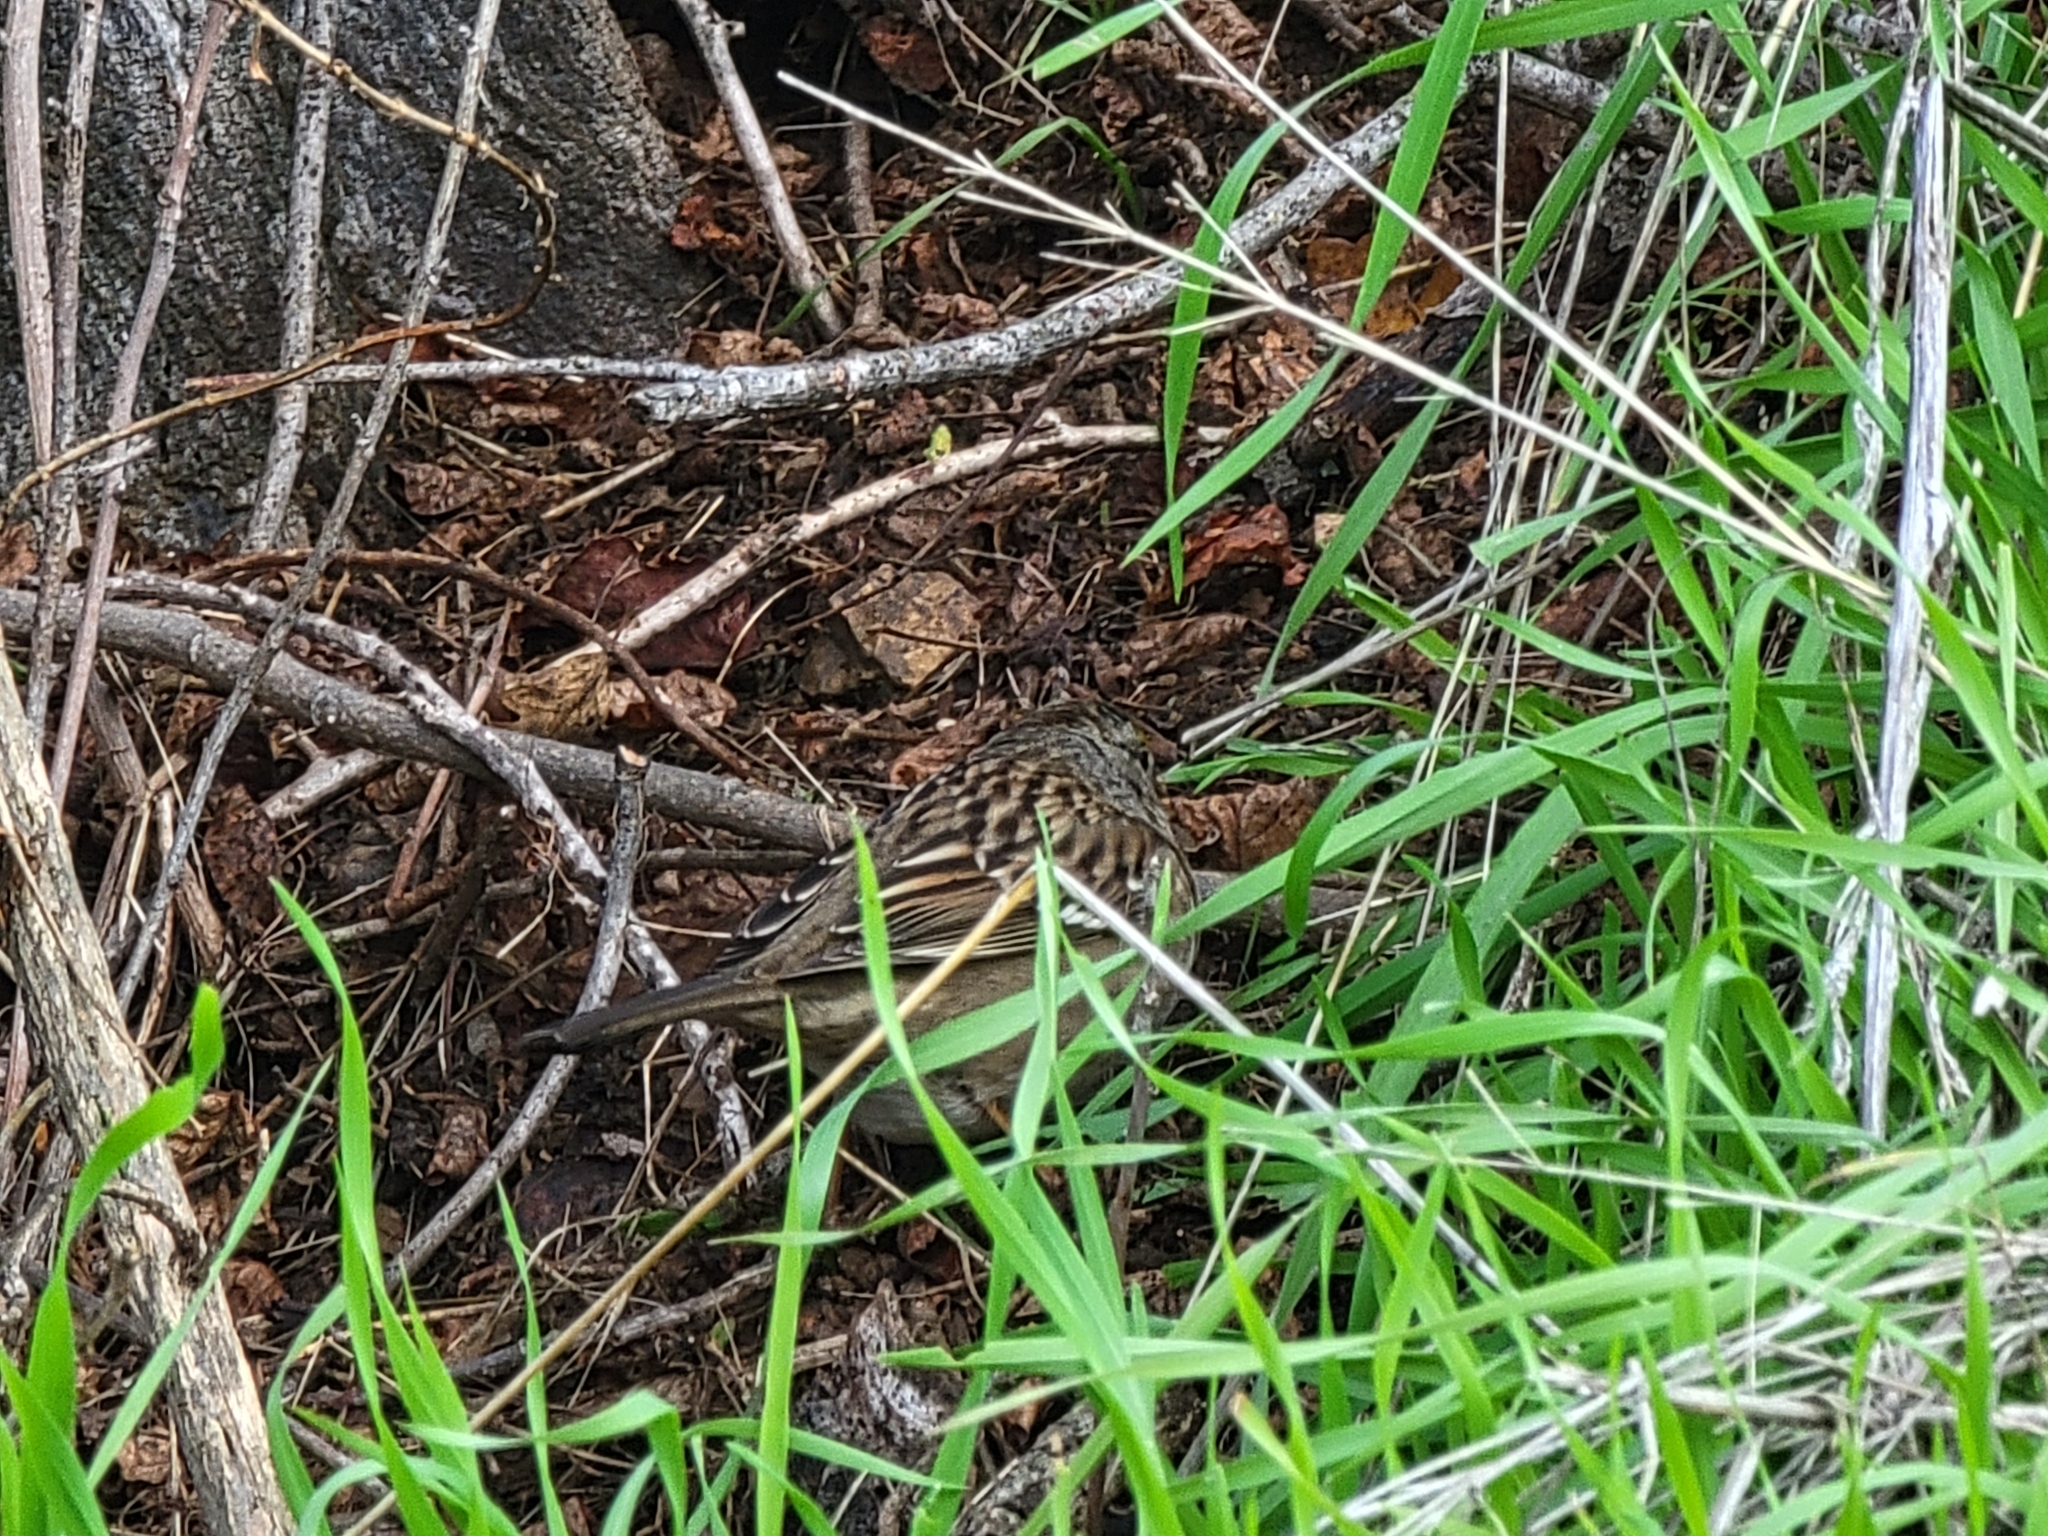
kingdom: Animalia
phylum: Chordata
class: Aves
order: Passeriformes
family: Passerellidae
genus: Zonotrichia
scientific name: Zonotrichia atricapilla
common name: Golden-crowned sparrow
